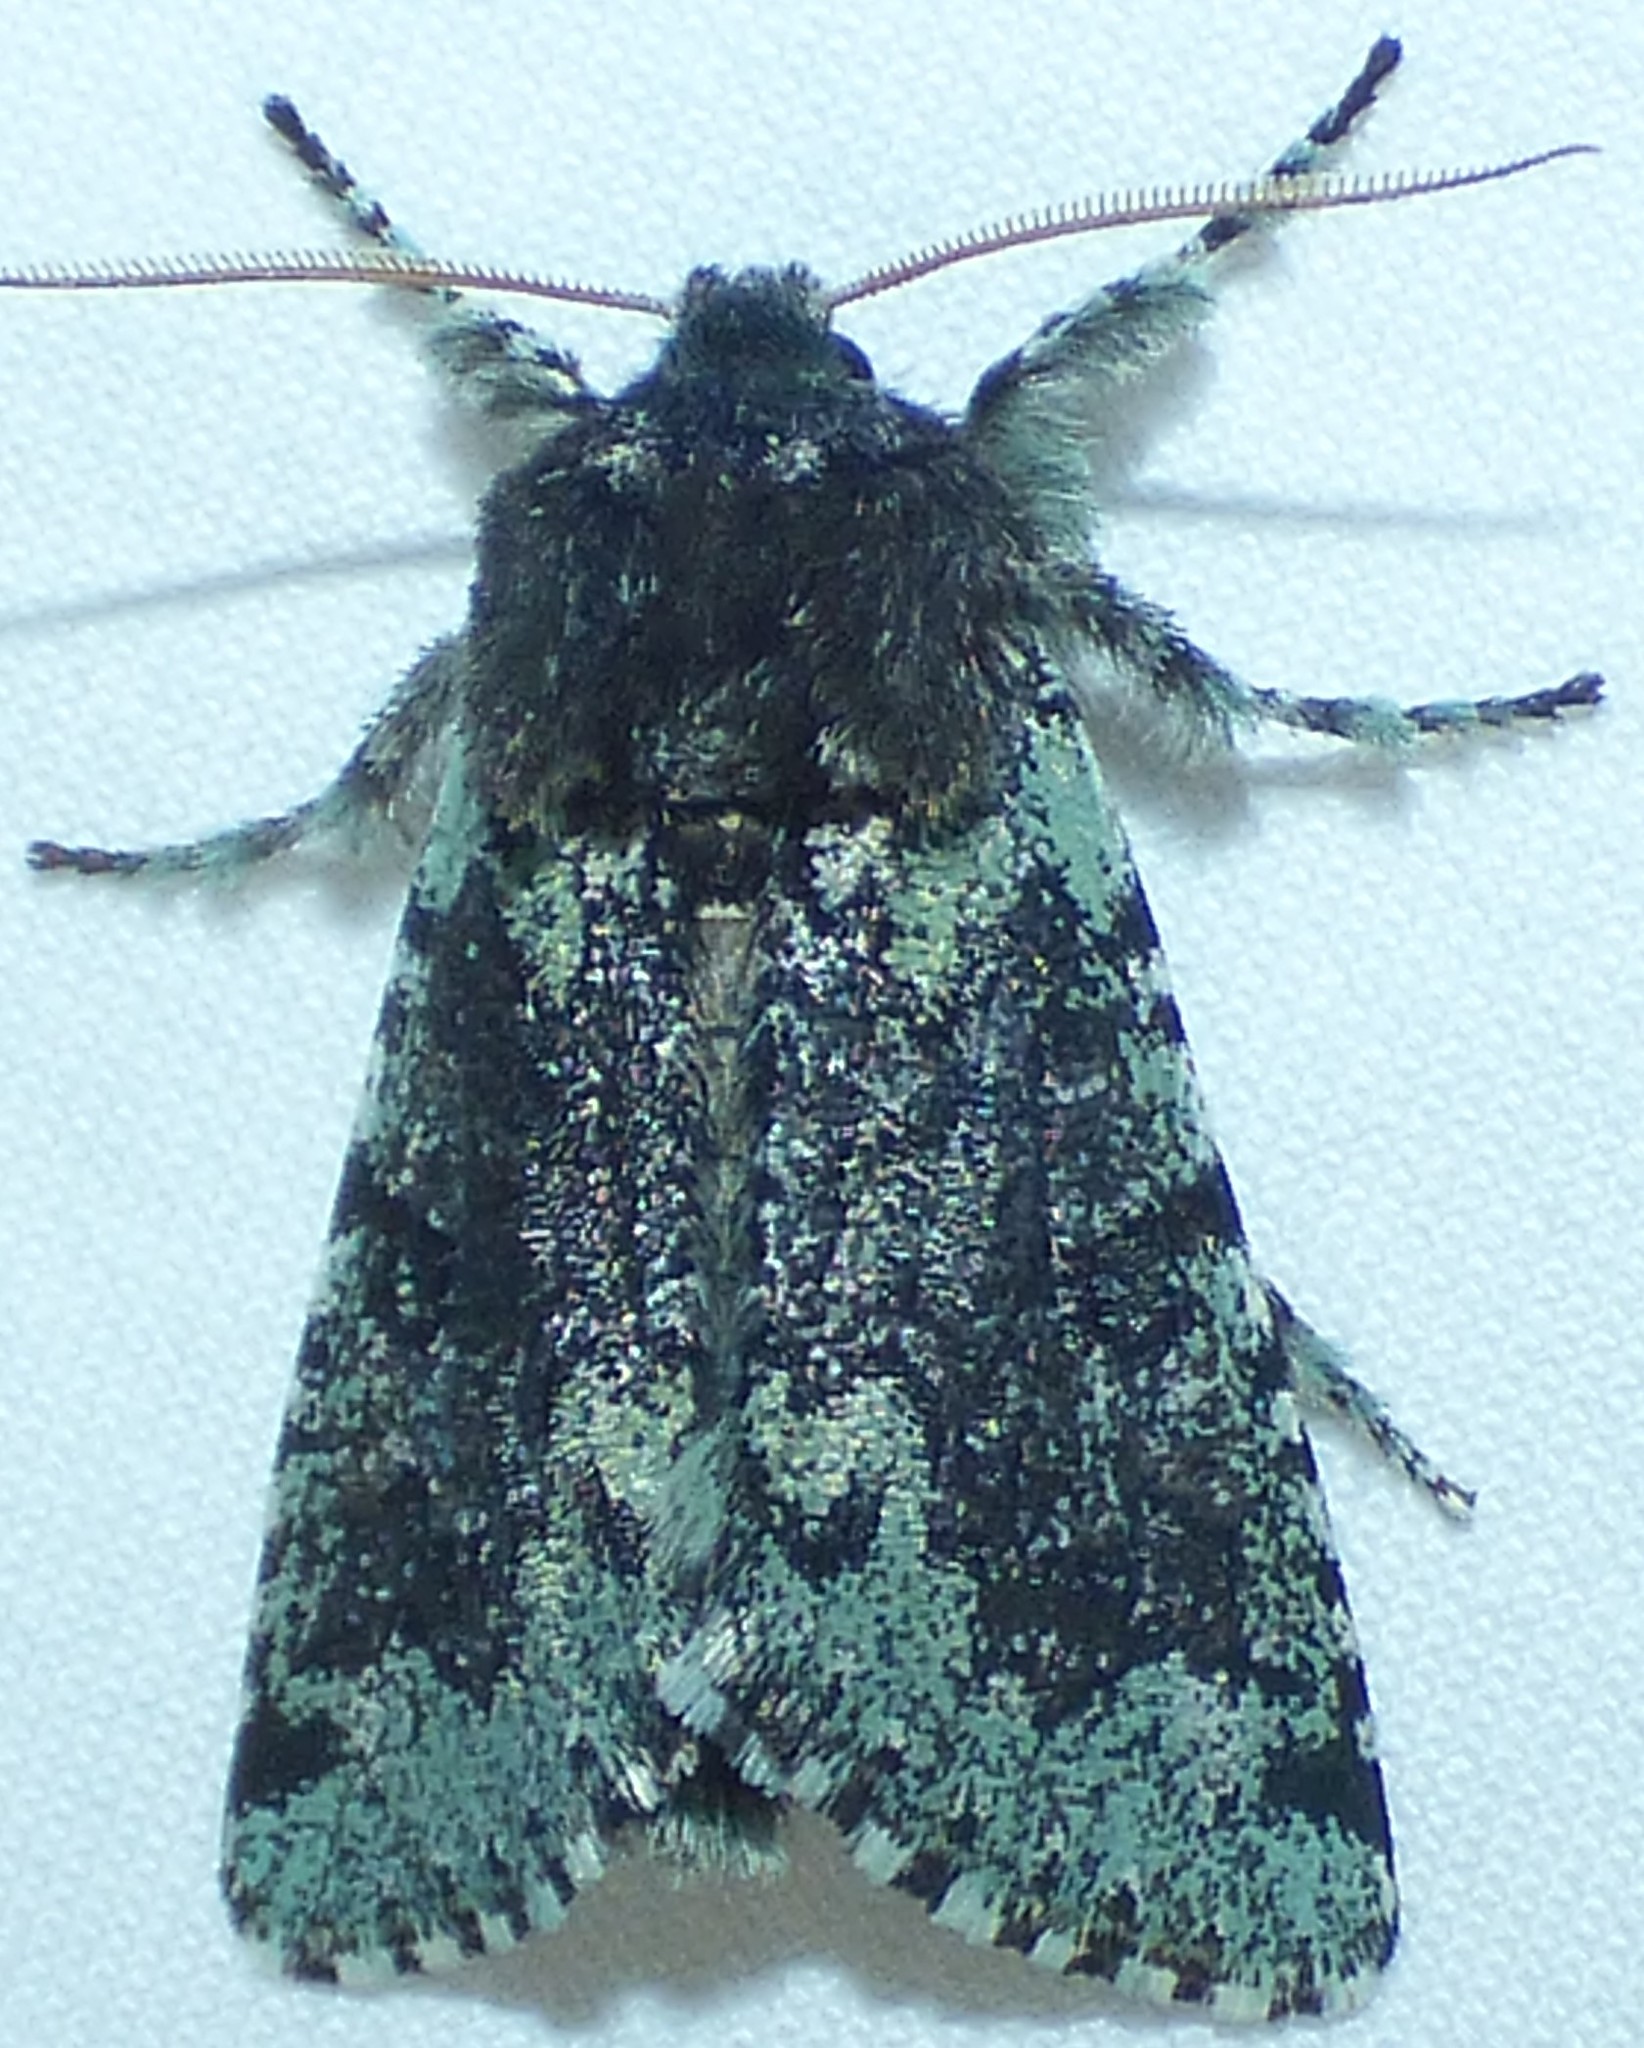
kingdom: Animalia
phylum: Arthropoda
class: Insecta
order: Lepidoptera
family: Noctuidae
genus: Feralia
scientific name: Feralia major
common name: Major sallow
